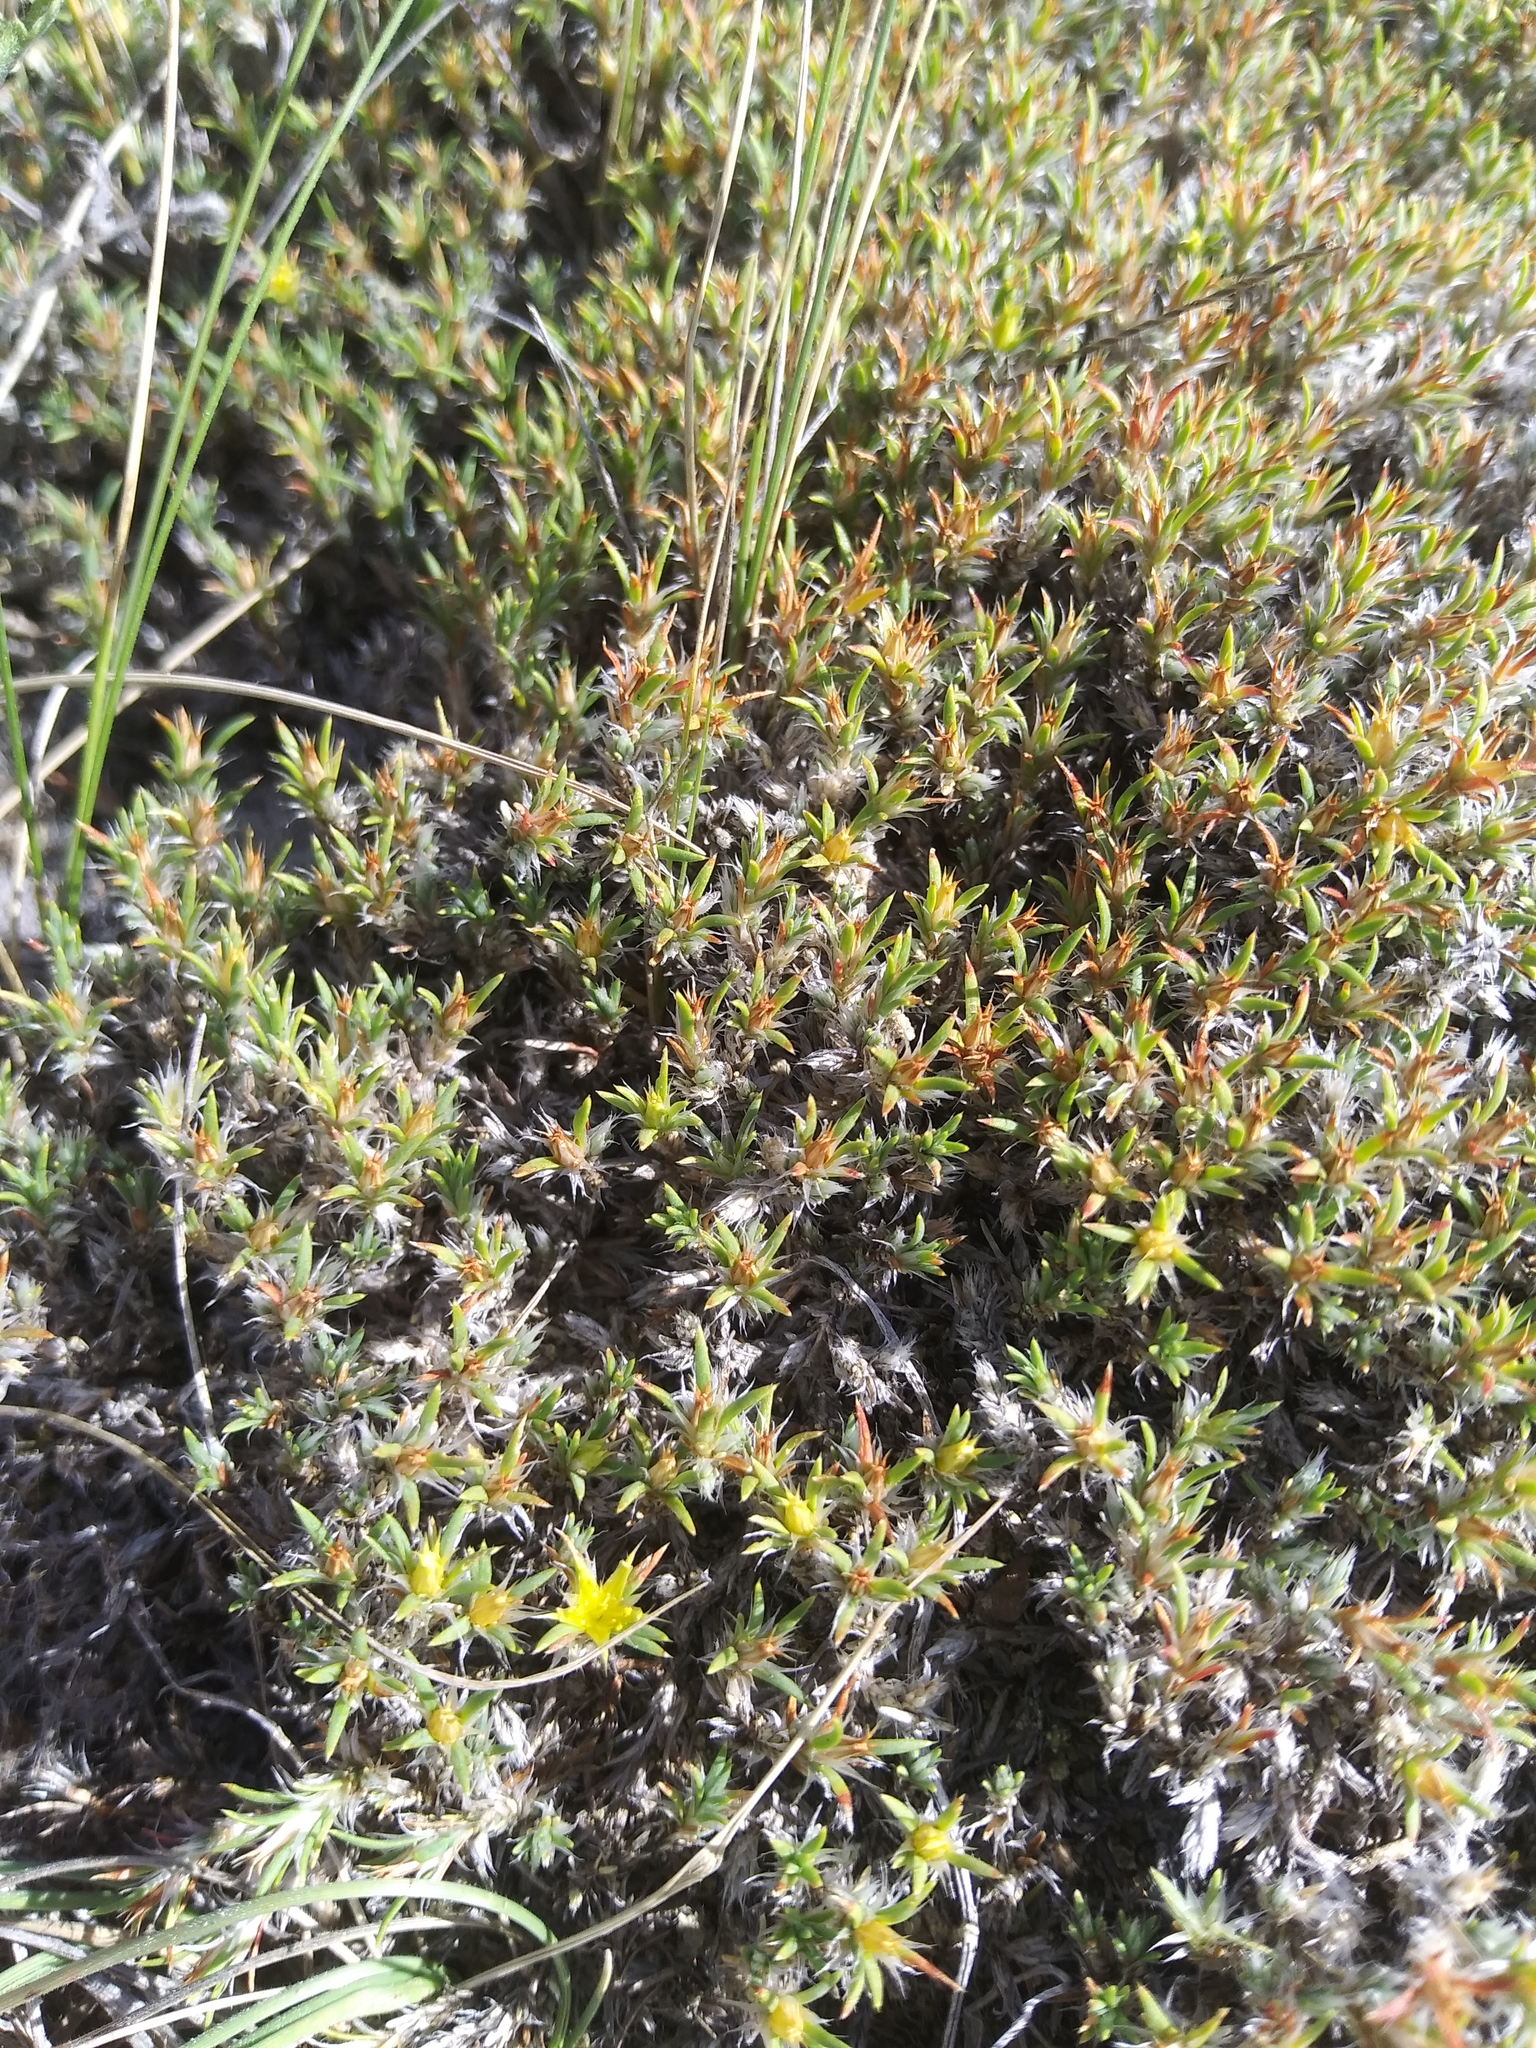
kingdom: Plantae
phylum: Tracheophyta
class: Magnoliopsida
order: Caryophyllales
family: Caryophyllaceae
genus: Paronychia
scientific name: Paronychia sessiliflora
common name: Creeping nailwort
